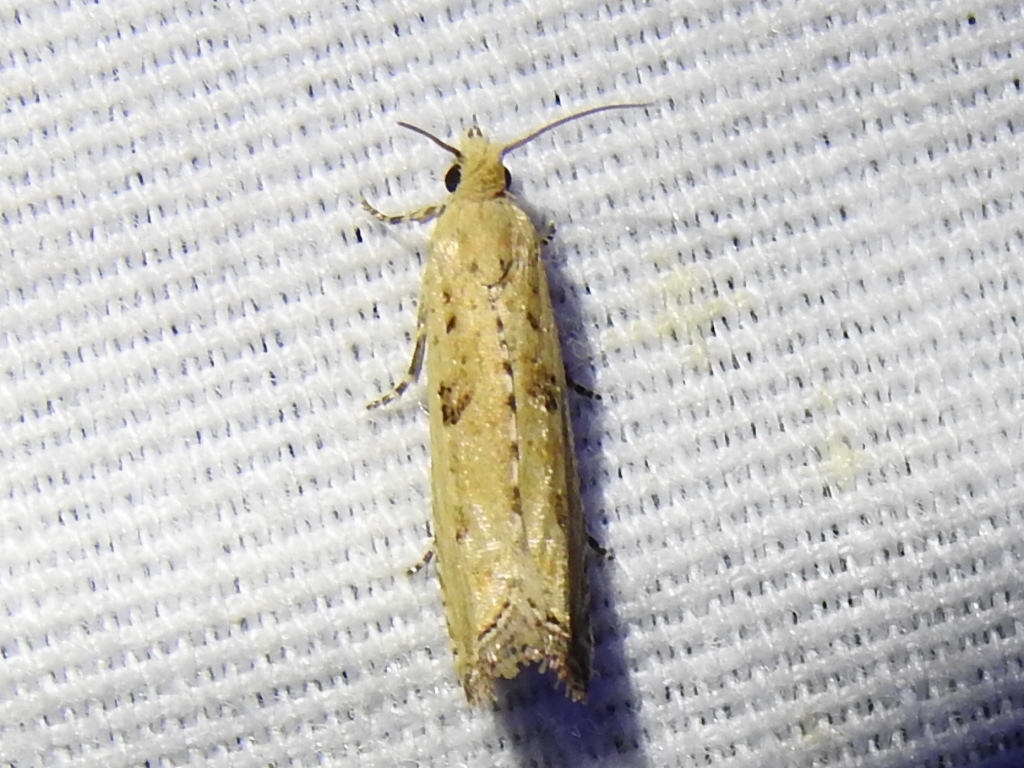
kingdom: Animalia
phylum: Arthropoda
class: Insecta
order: Lepidoptera
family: Tortricidae
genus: Bactra
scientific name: Bactra verutana
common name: Javelin moth
